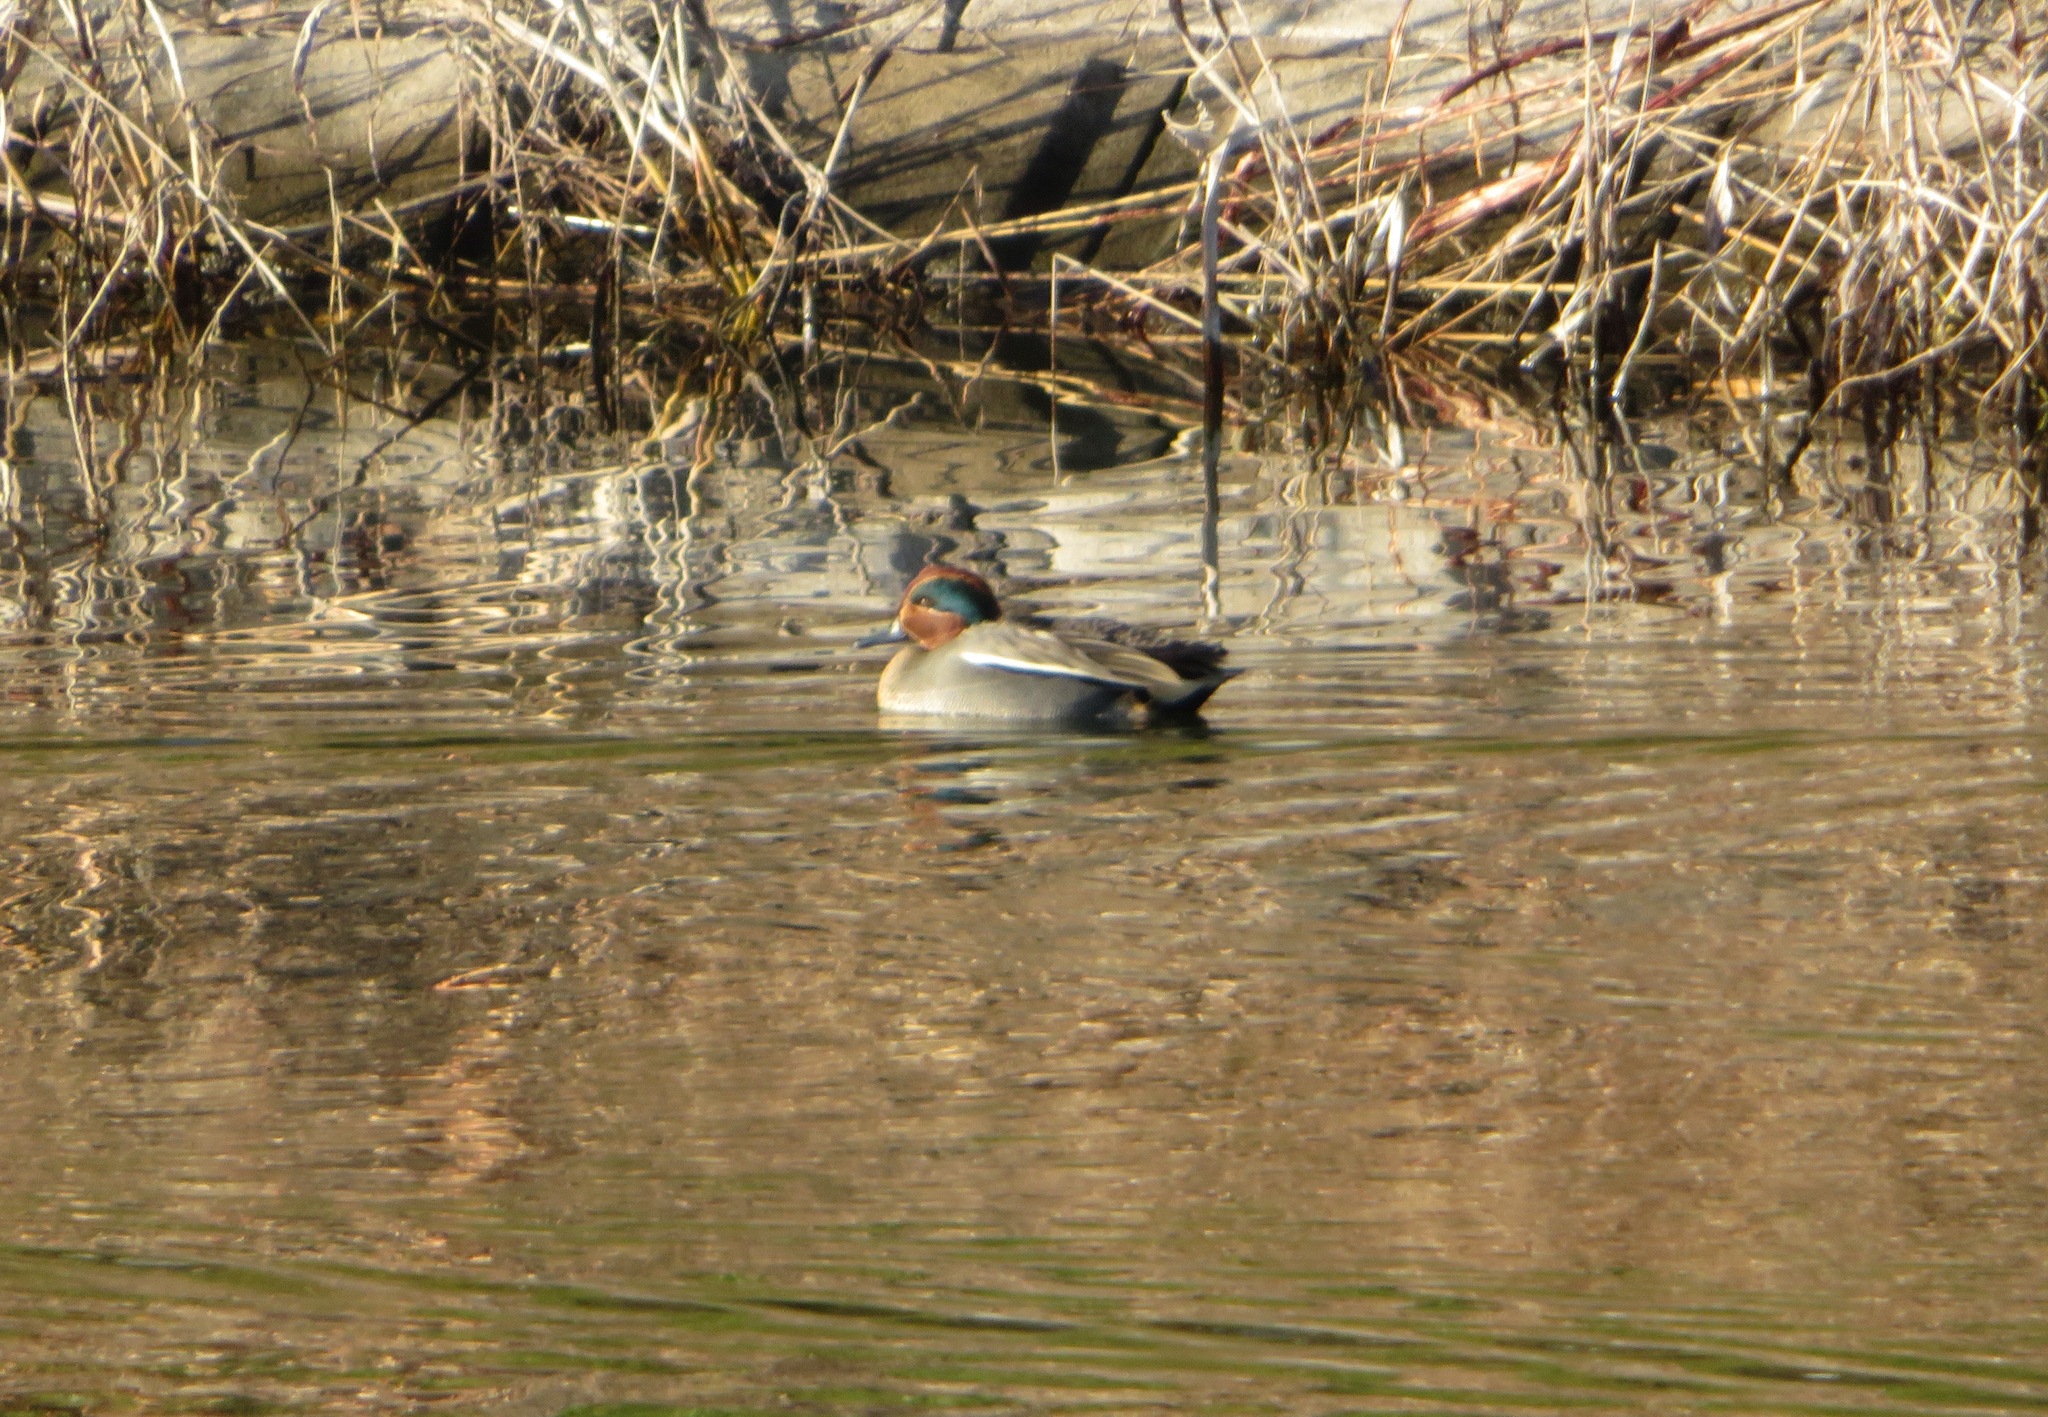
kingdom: Animalia
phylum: Chordata
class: Aves
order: Anseriformes
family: Anatidae
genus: Anas
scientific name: Anas crecca
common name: Eurasian teal
